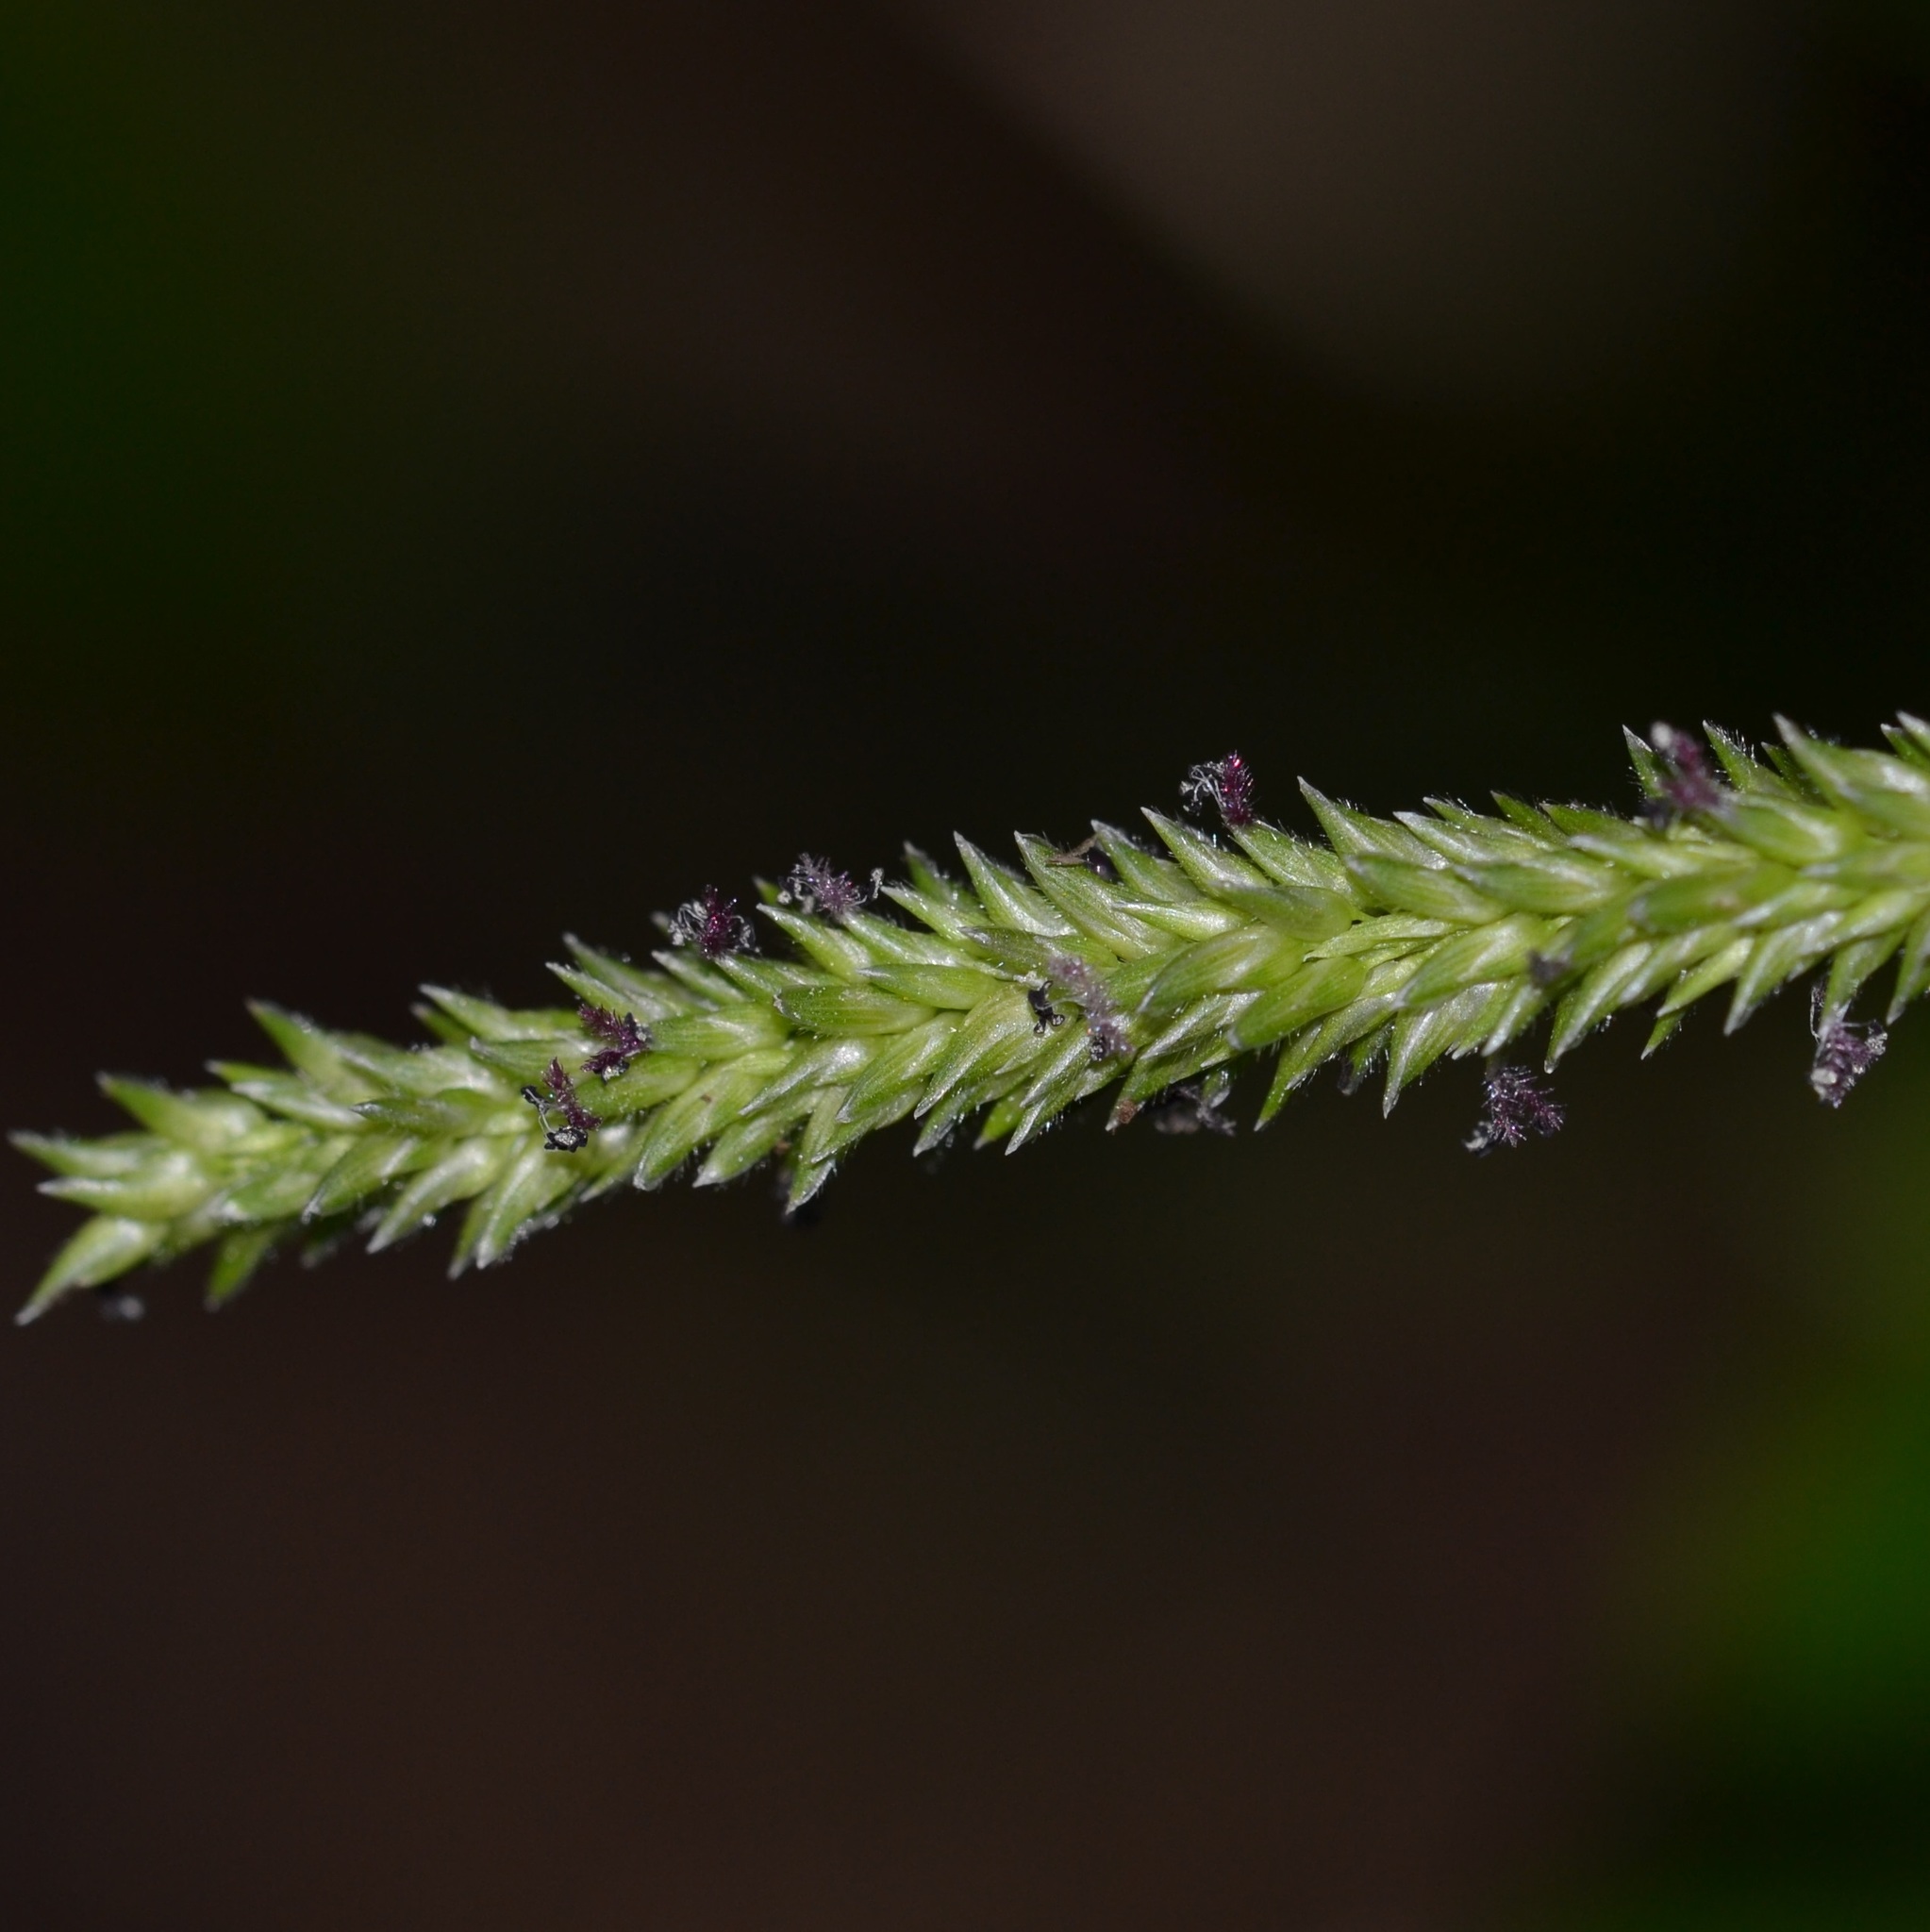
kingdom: Plantae
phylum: Tracheophyta
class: Liliopsida
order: Poales
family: Poaceae
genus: Sacciolepis
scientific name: Sacciolepis indica
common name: Glenwoodgrass
